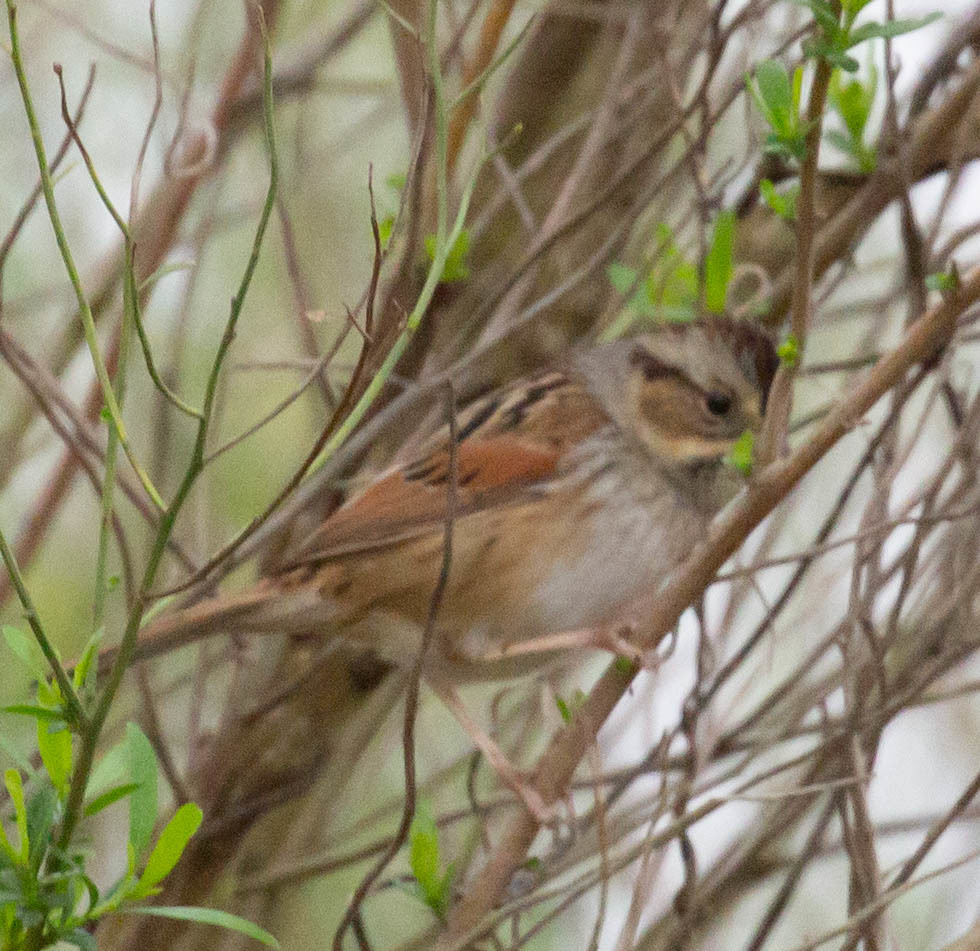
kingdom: Animalia
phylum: Chordata
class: Aves
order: Passeriformes
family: Passerellidae
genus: Melospiza
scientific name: Melospiza georgiana
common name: Swamp sparrow
